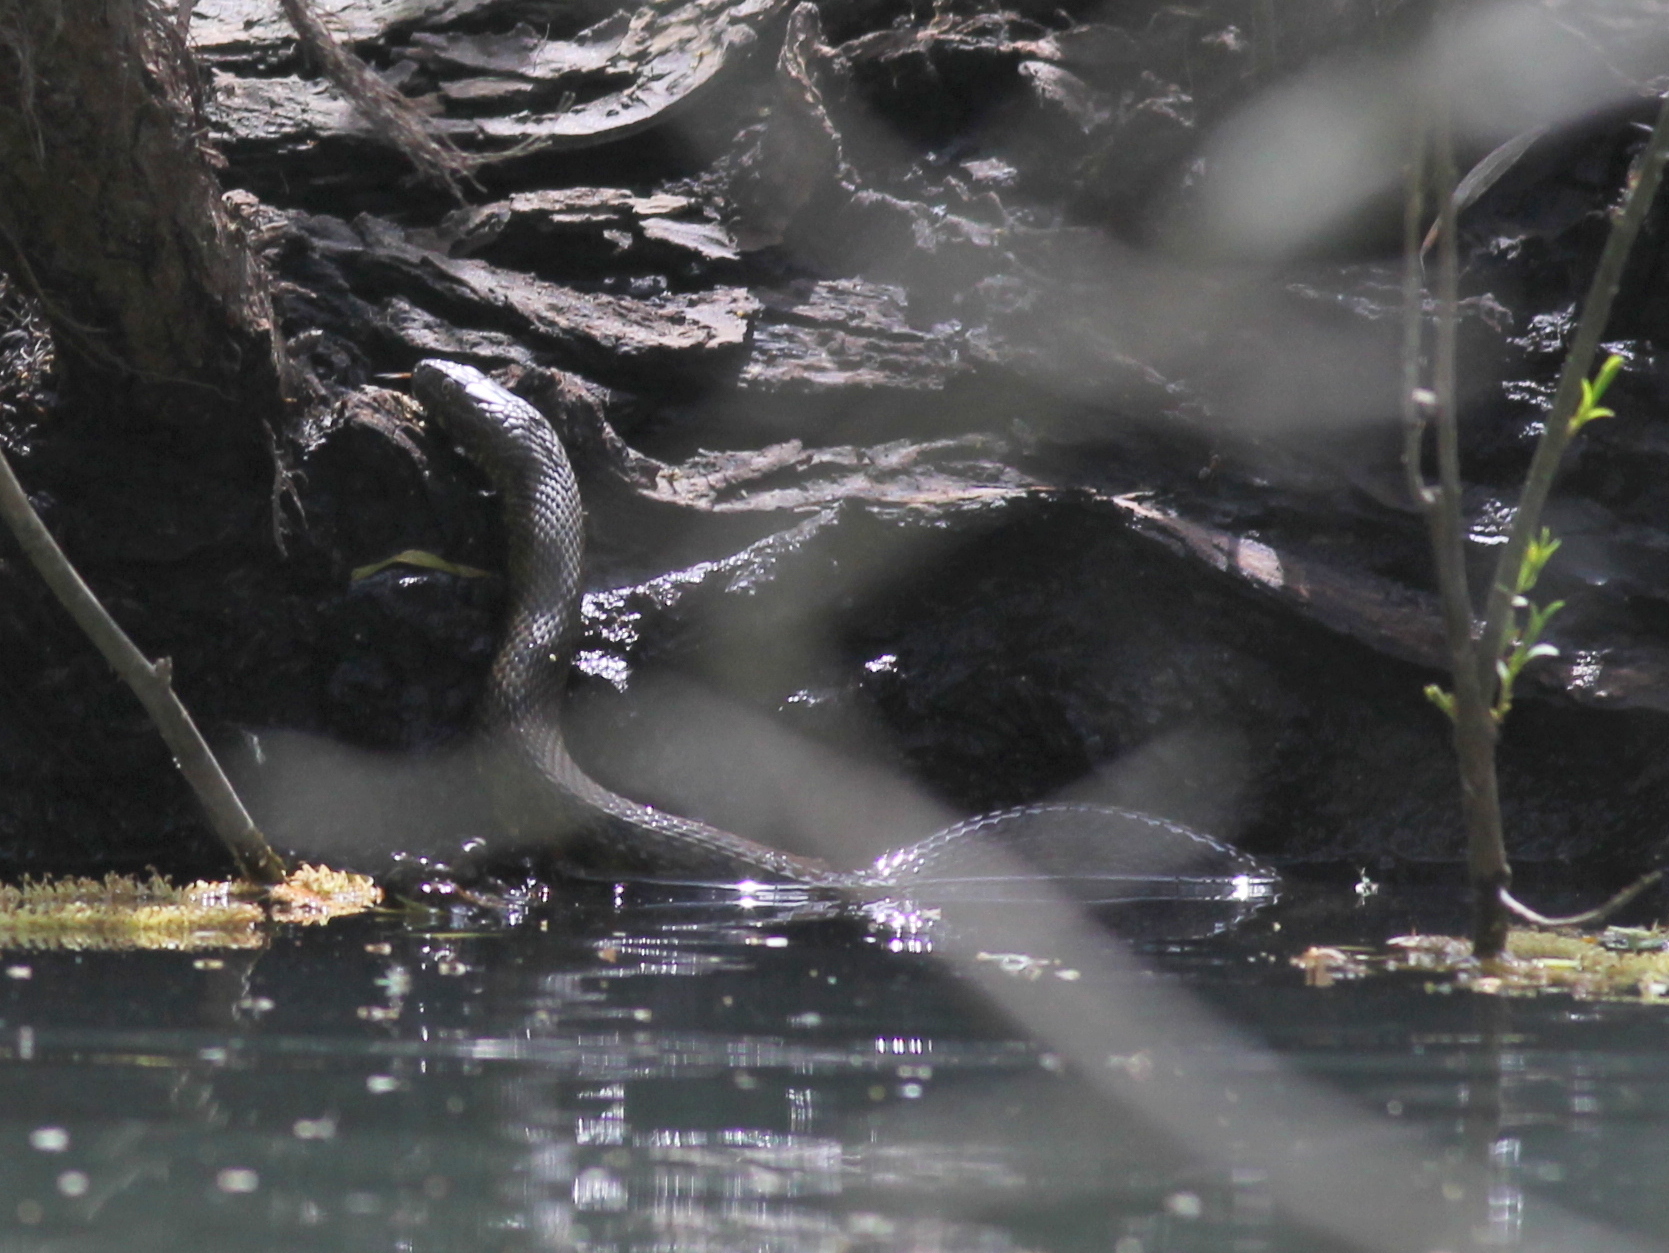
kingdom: Animalia
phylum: Chordata
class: Squamata
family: Colubridae
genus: Natrix
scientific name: Natrix tessellata
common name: Dice snake
